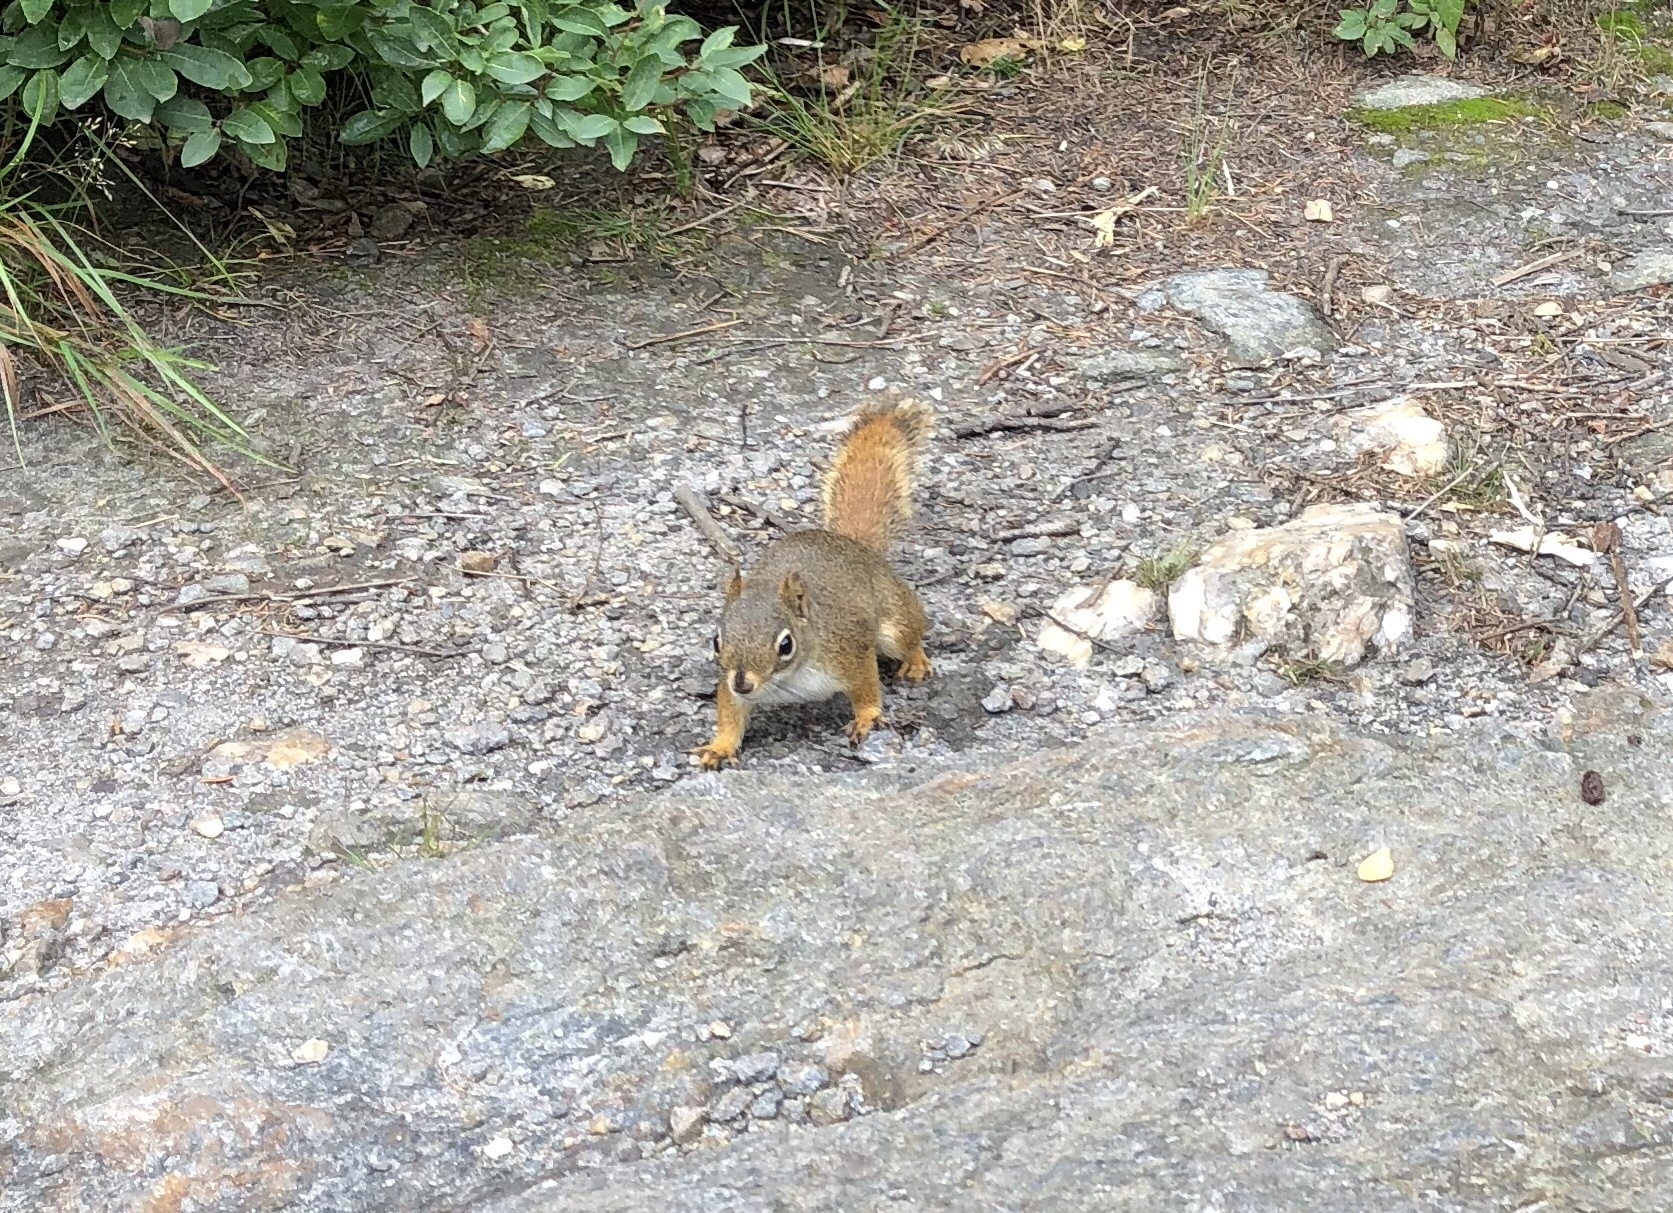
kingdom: Animalia
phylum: Chordata
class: Mammalia
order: Rodentia
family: Sciuridae
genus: Tamiasciurus
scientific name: Tamiasciurus hudsonicus
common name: Red squirrel
